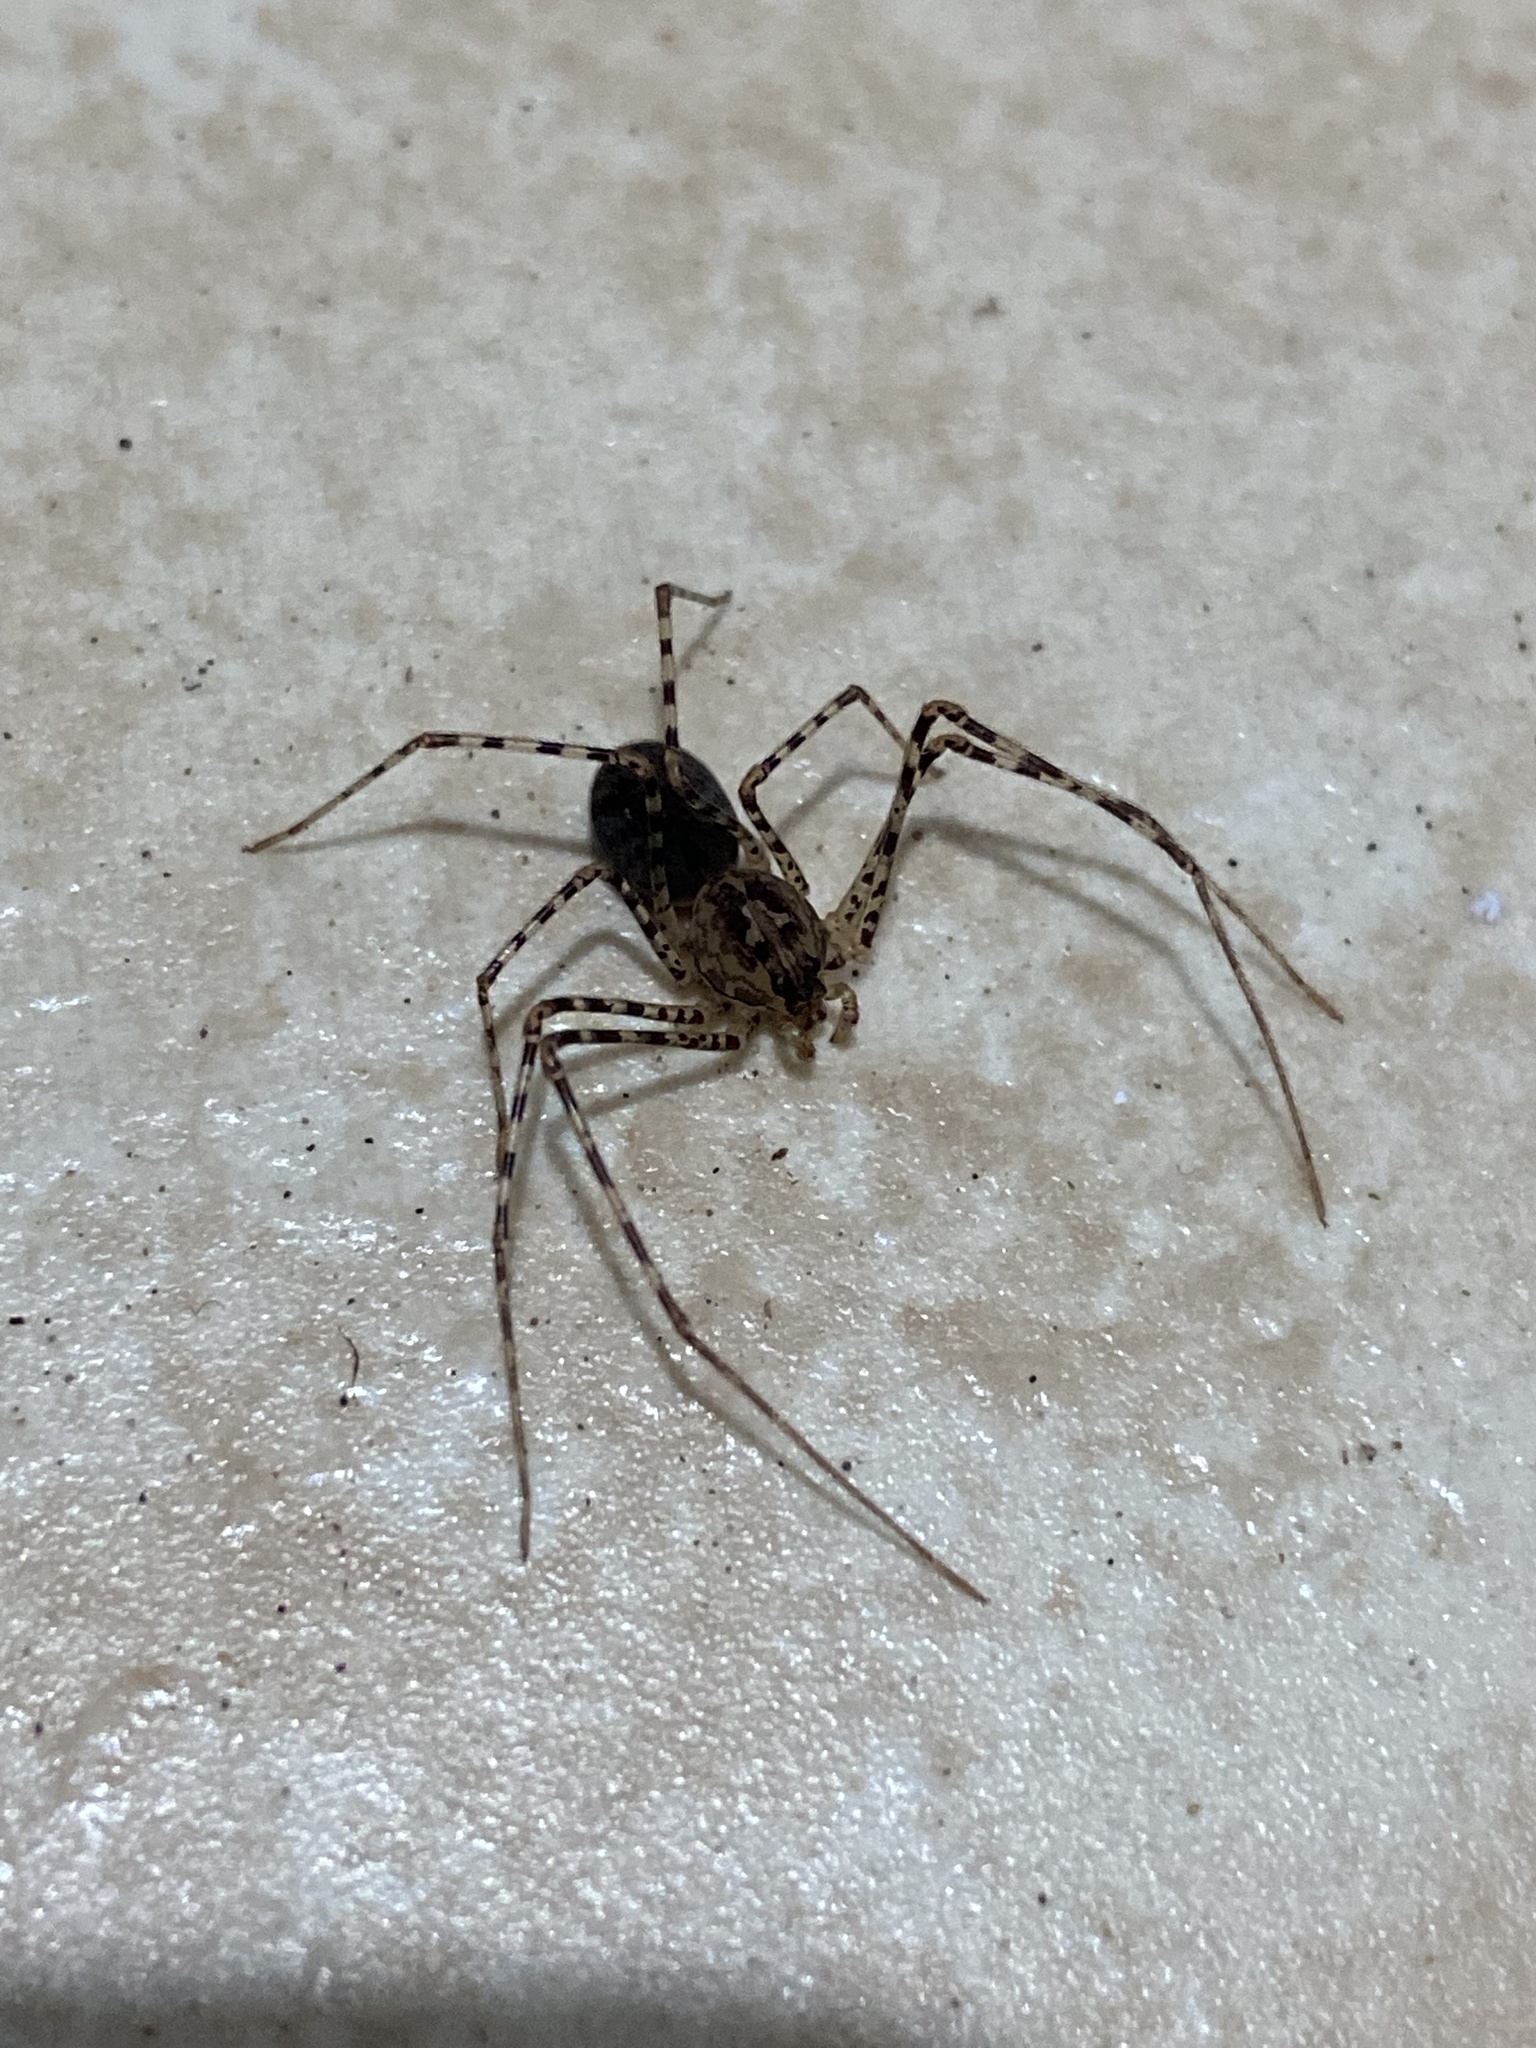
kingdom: Animalia
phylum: Arthropoda
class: Arachnida
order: Araneae
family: Scytodidae
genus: Scytodes
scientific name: Scytodes globula
